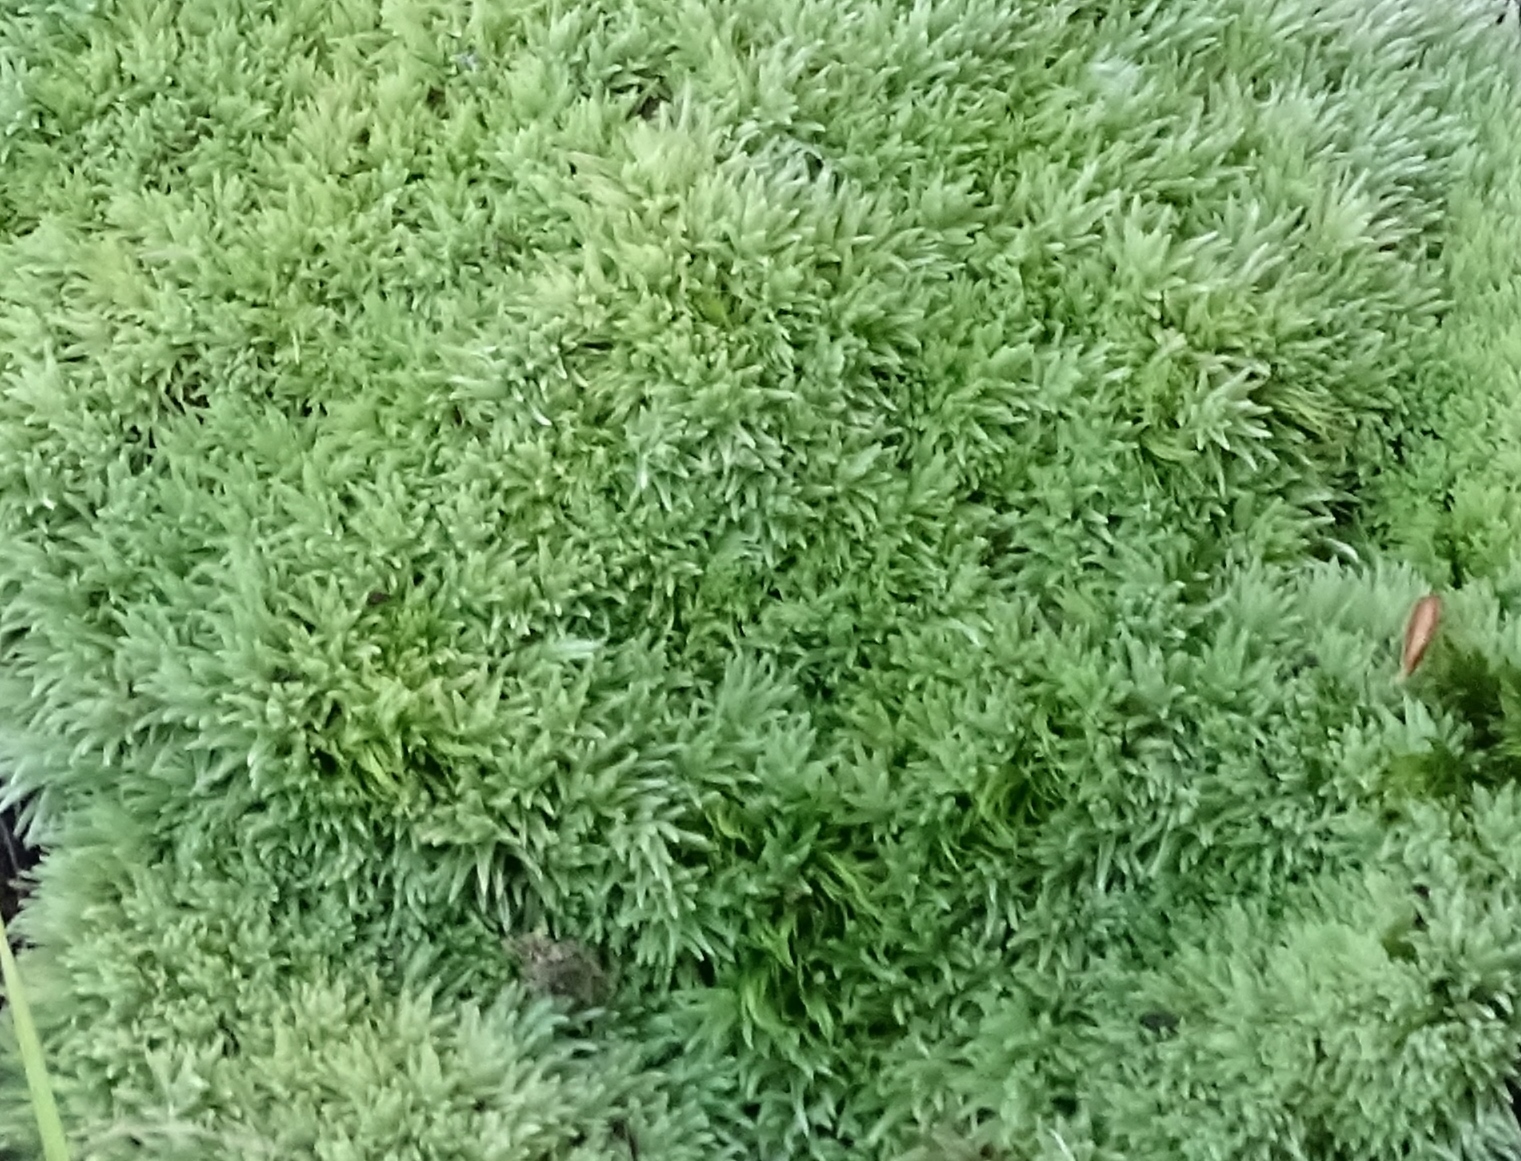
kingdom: Plantae
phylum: Bryophyta
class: Bryopsida
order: Dicranales
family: Leucobryaceae
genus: Leucobryum
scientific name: Leucobryum glaucum
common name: Large white-moss
